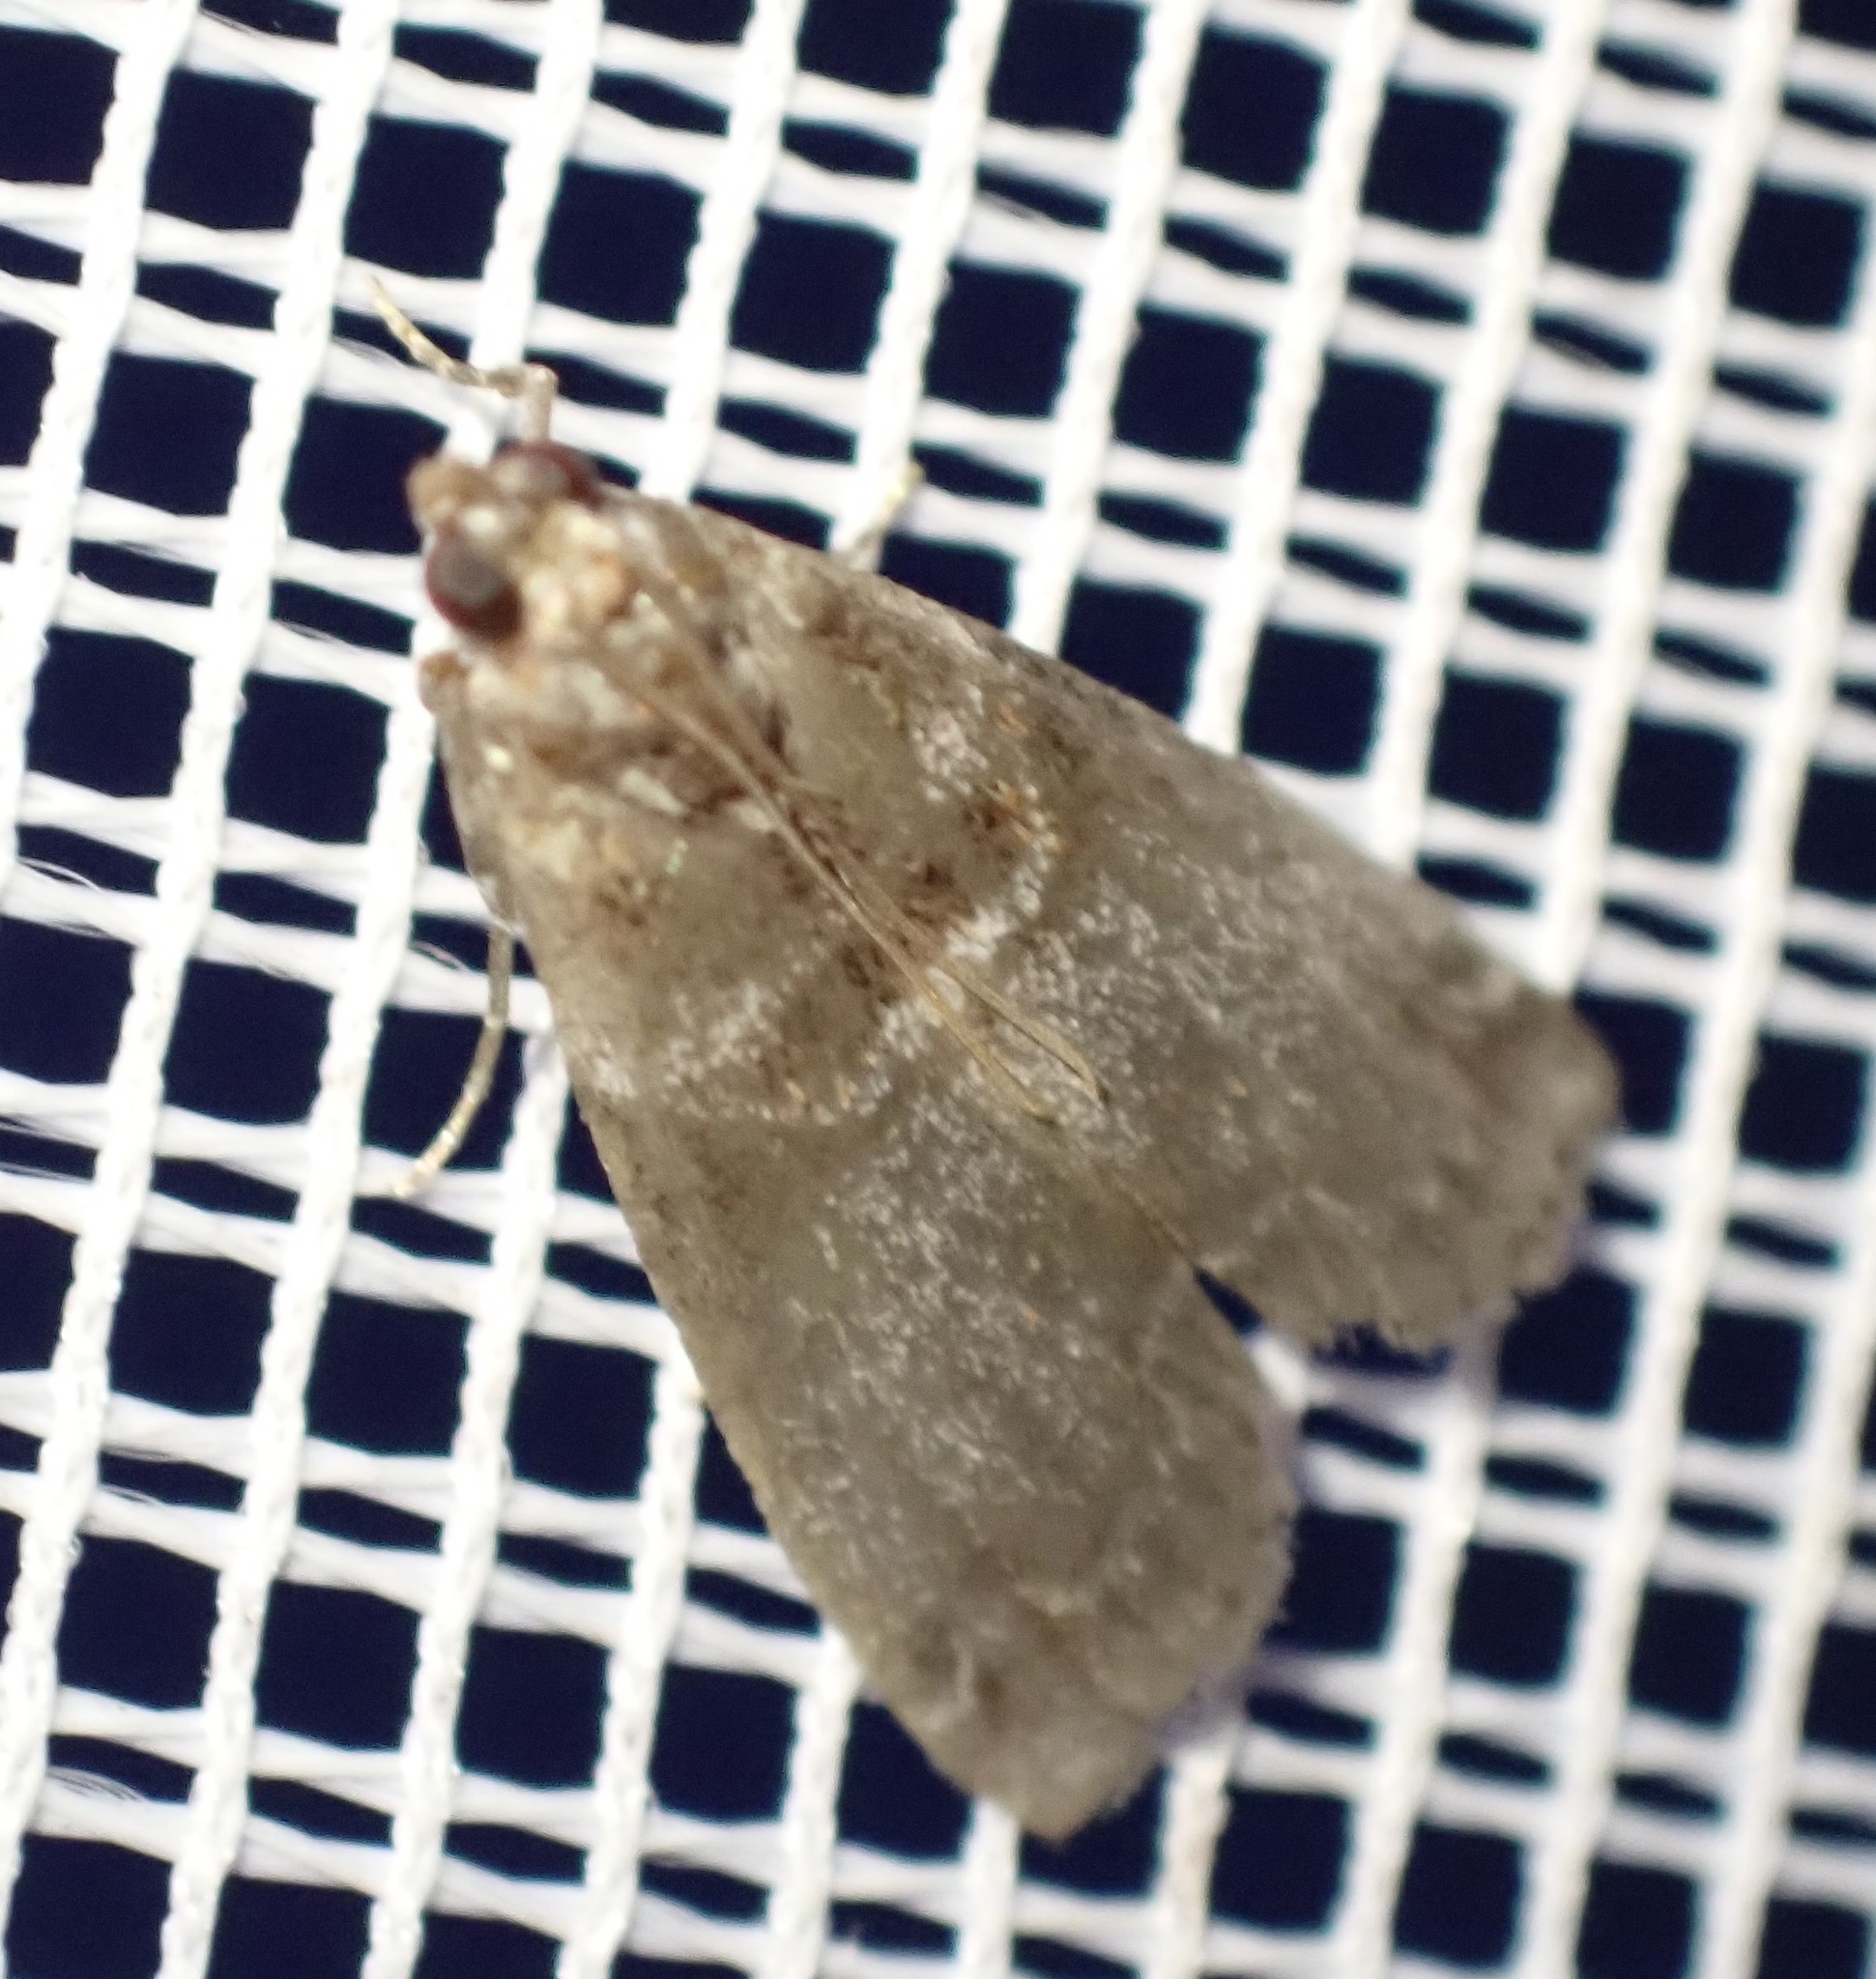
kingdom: Animalia
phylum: Arthropoda
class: Insecta
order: Lepidoptera
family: Pyralidae
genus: Acrobasis
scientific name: Acrobasis advenella
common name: Grey knot-horn
